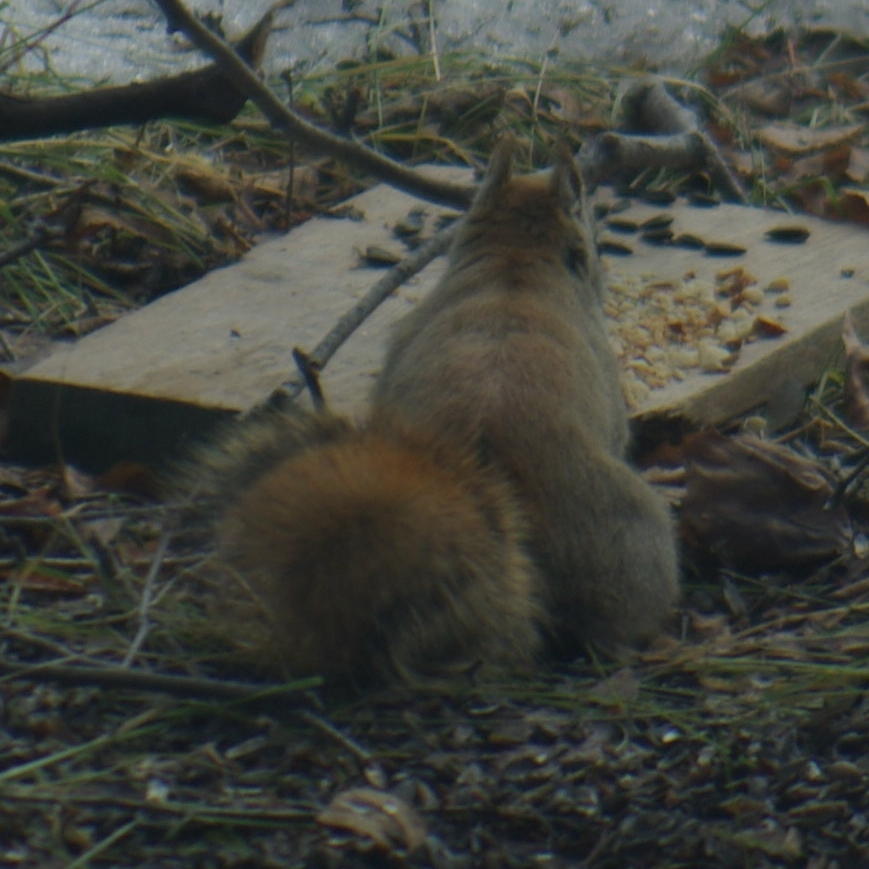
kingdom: Animalia
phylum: Chordata
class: Mammalia
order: Rodentia
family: Sciuridae
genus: Tamiasciurus
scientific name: Tamiasciurus hudsonicus
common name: Red squirrel
